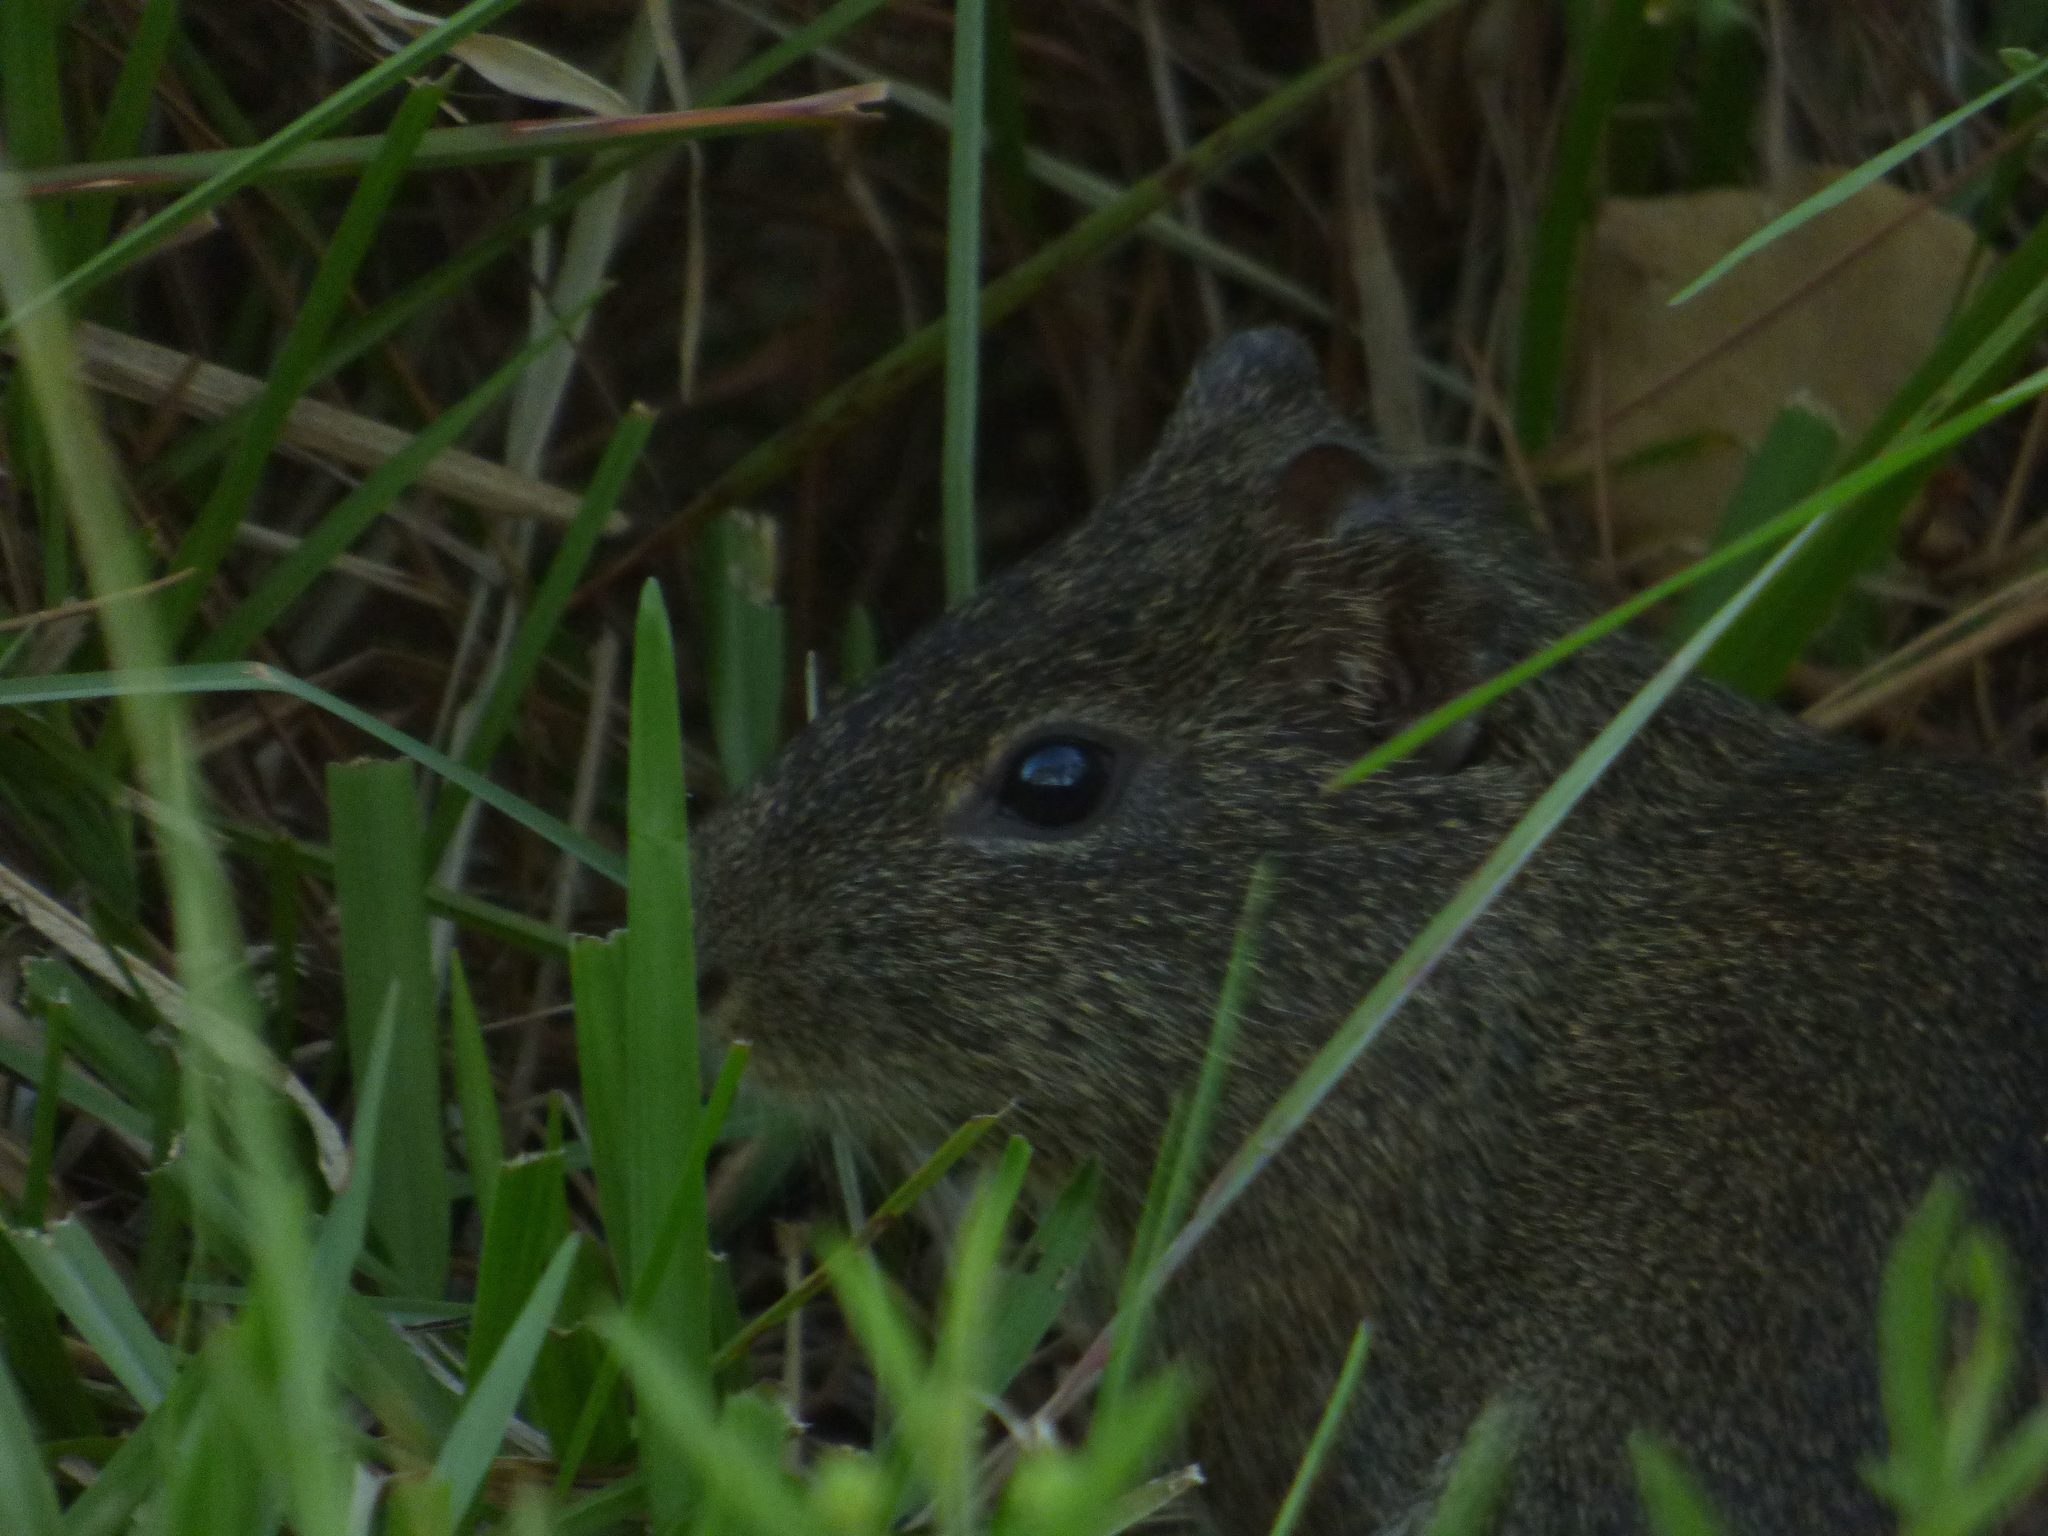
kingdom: Animalia
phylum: Chordata
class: Mammalia
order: Rodentia
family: Caviidae
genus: Cavia
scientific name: Cavia aperea
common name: Brazilian guinea pig
